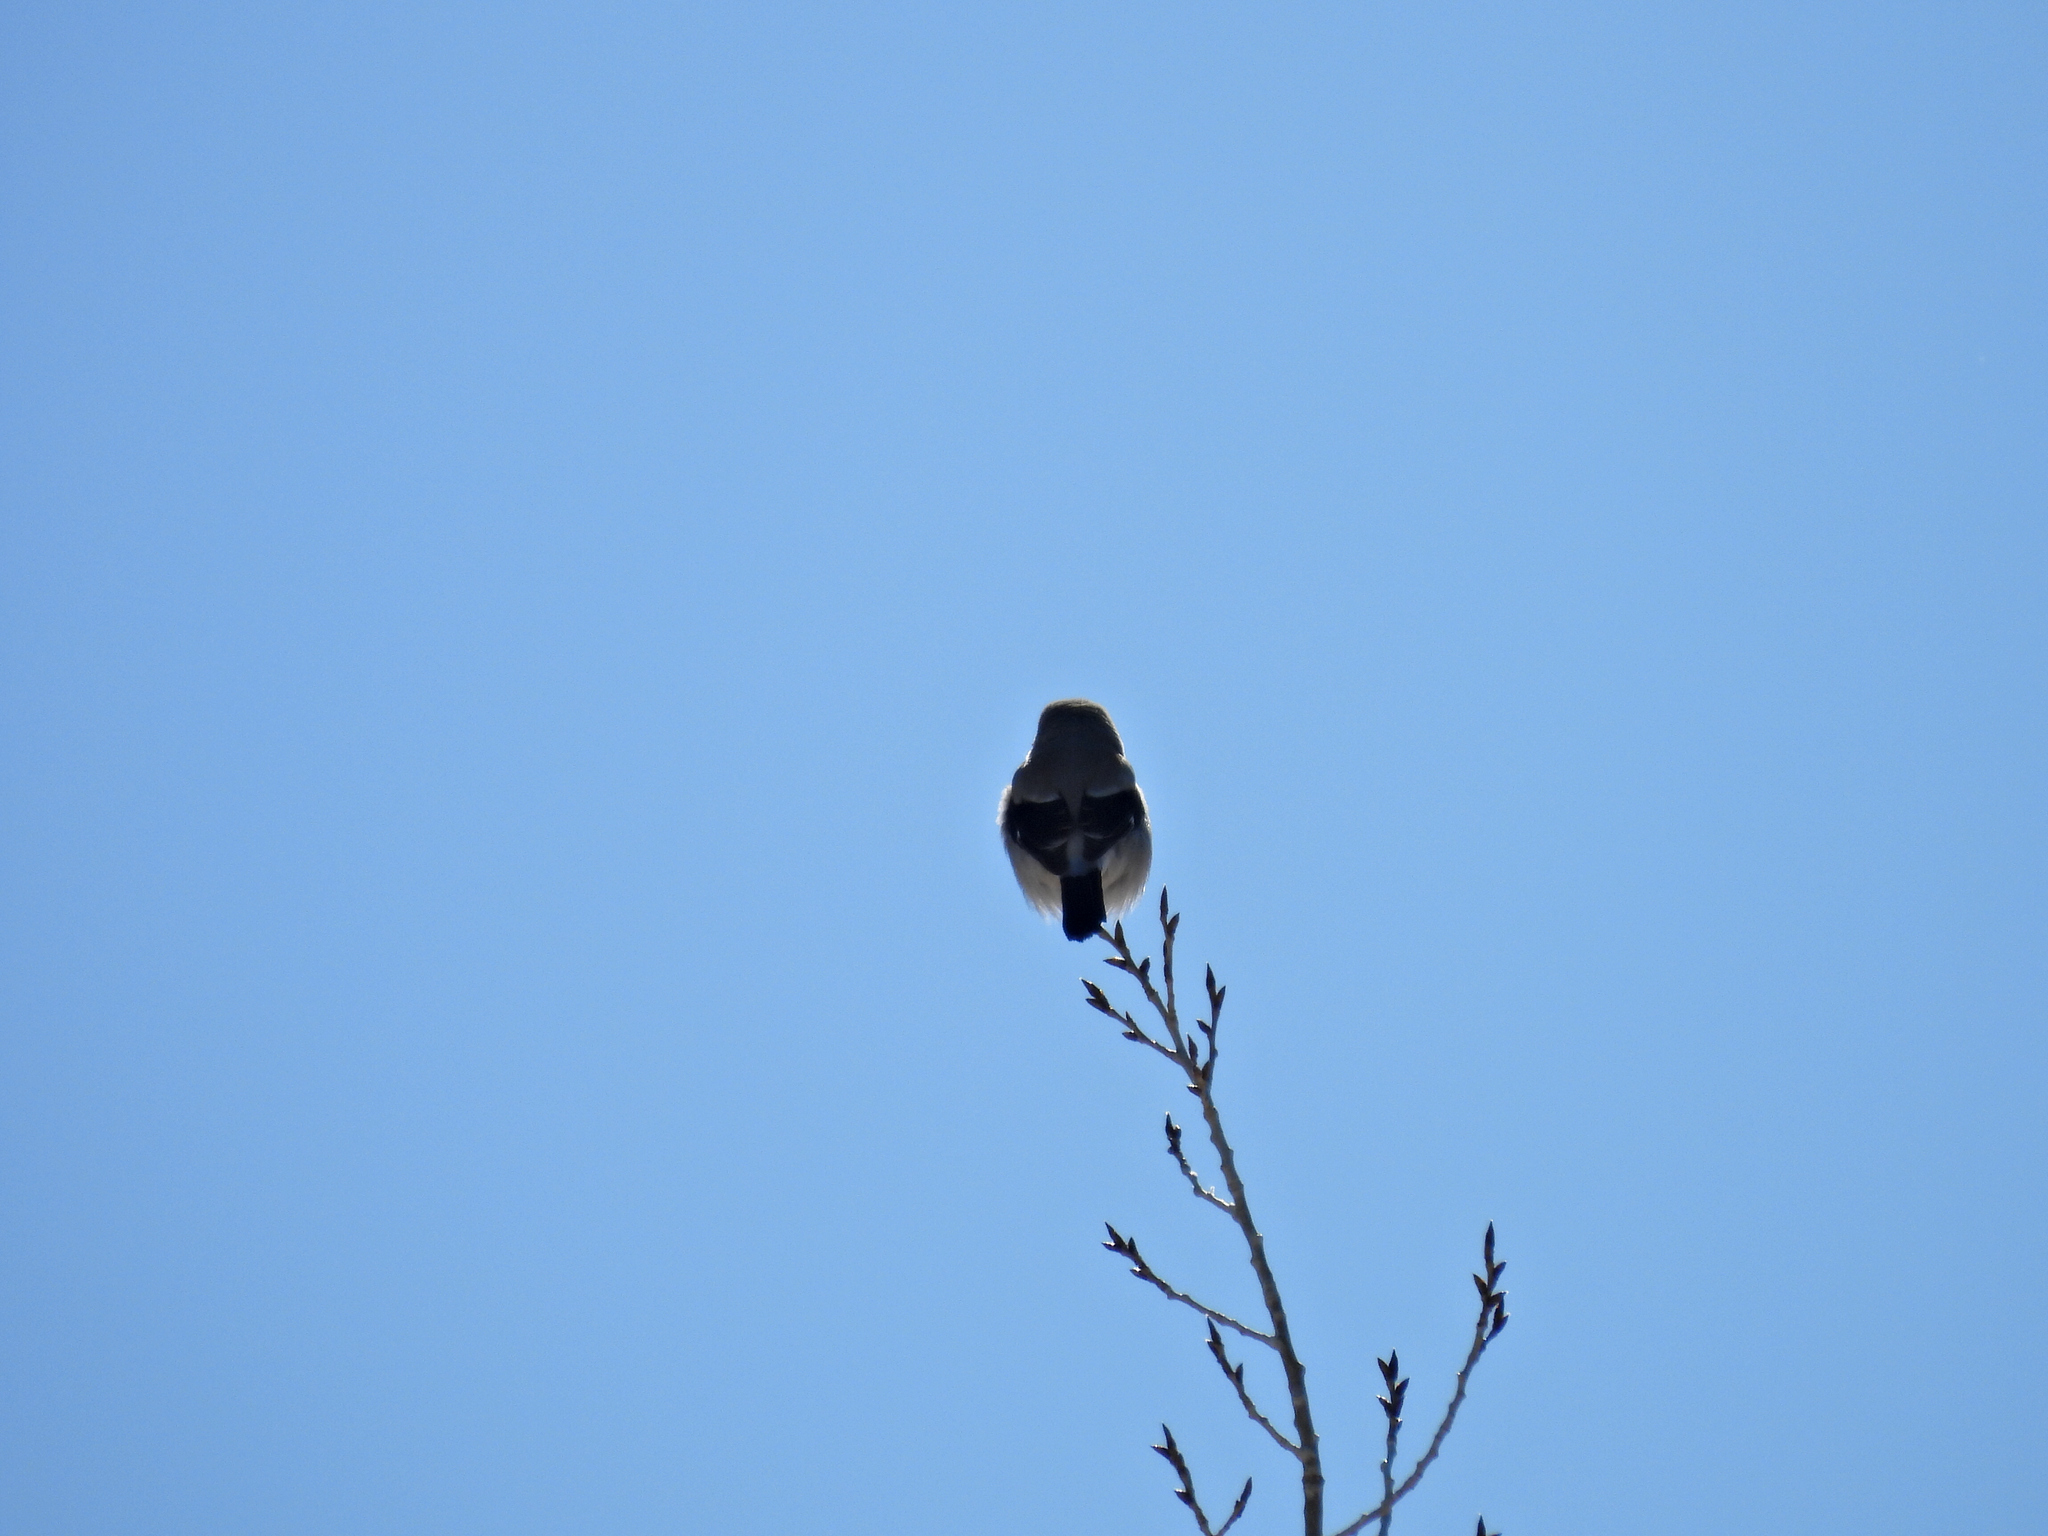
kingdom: Animalia
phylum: Chordata
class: Aves
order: Passeriformes
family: Laniidae
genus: Lanius
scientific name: Lanius borealis
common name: Northern shrike
